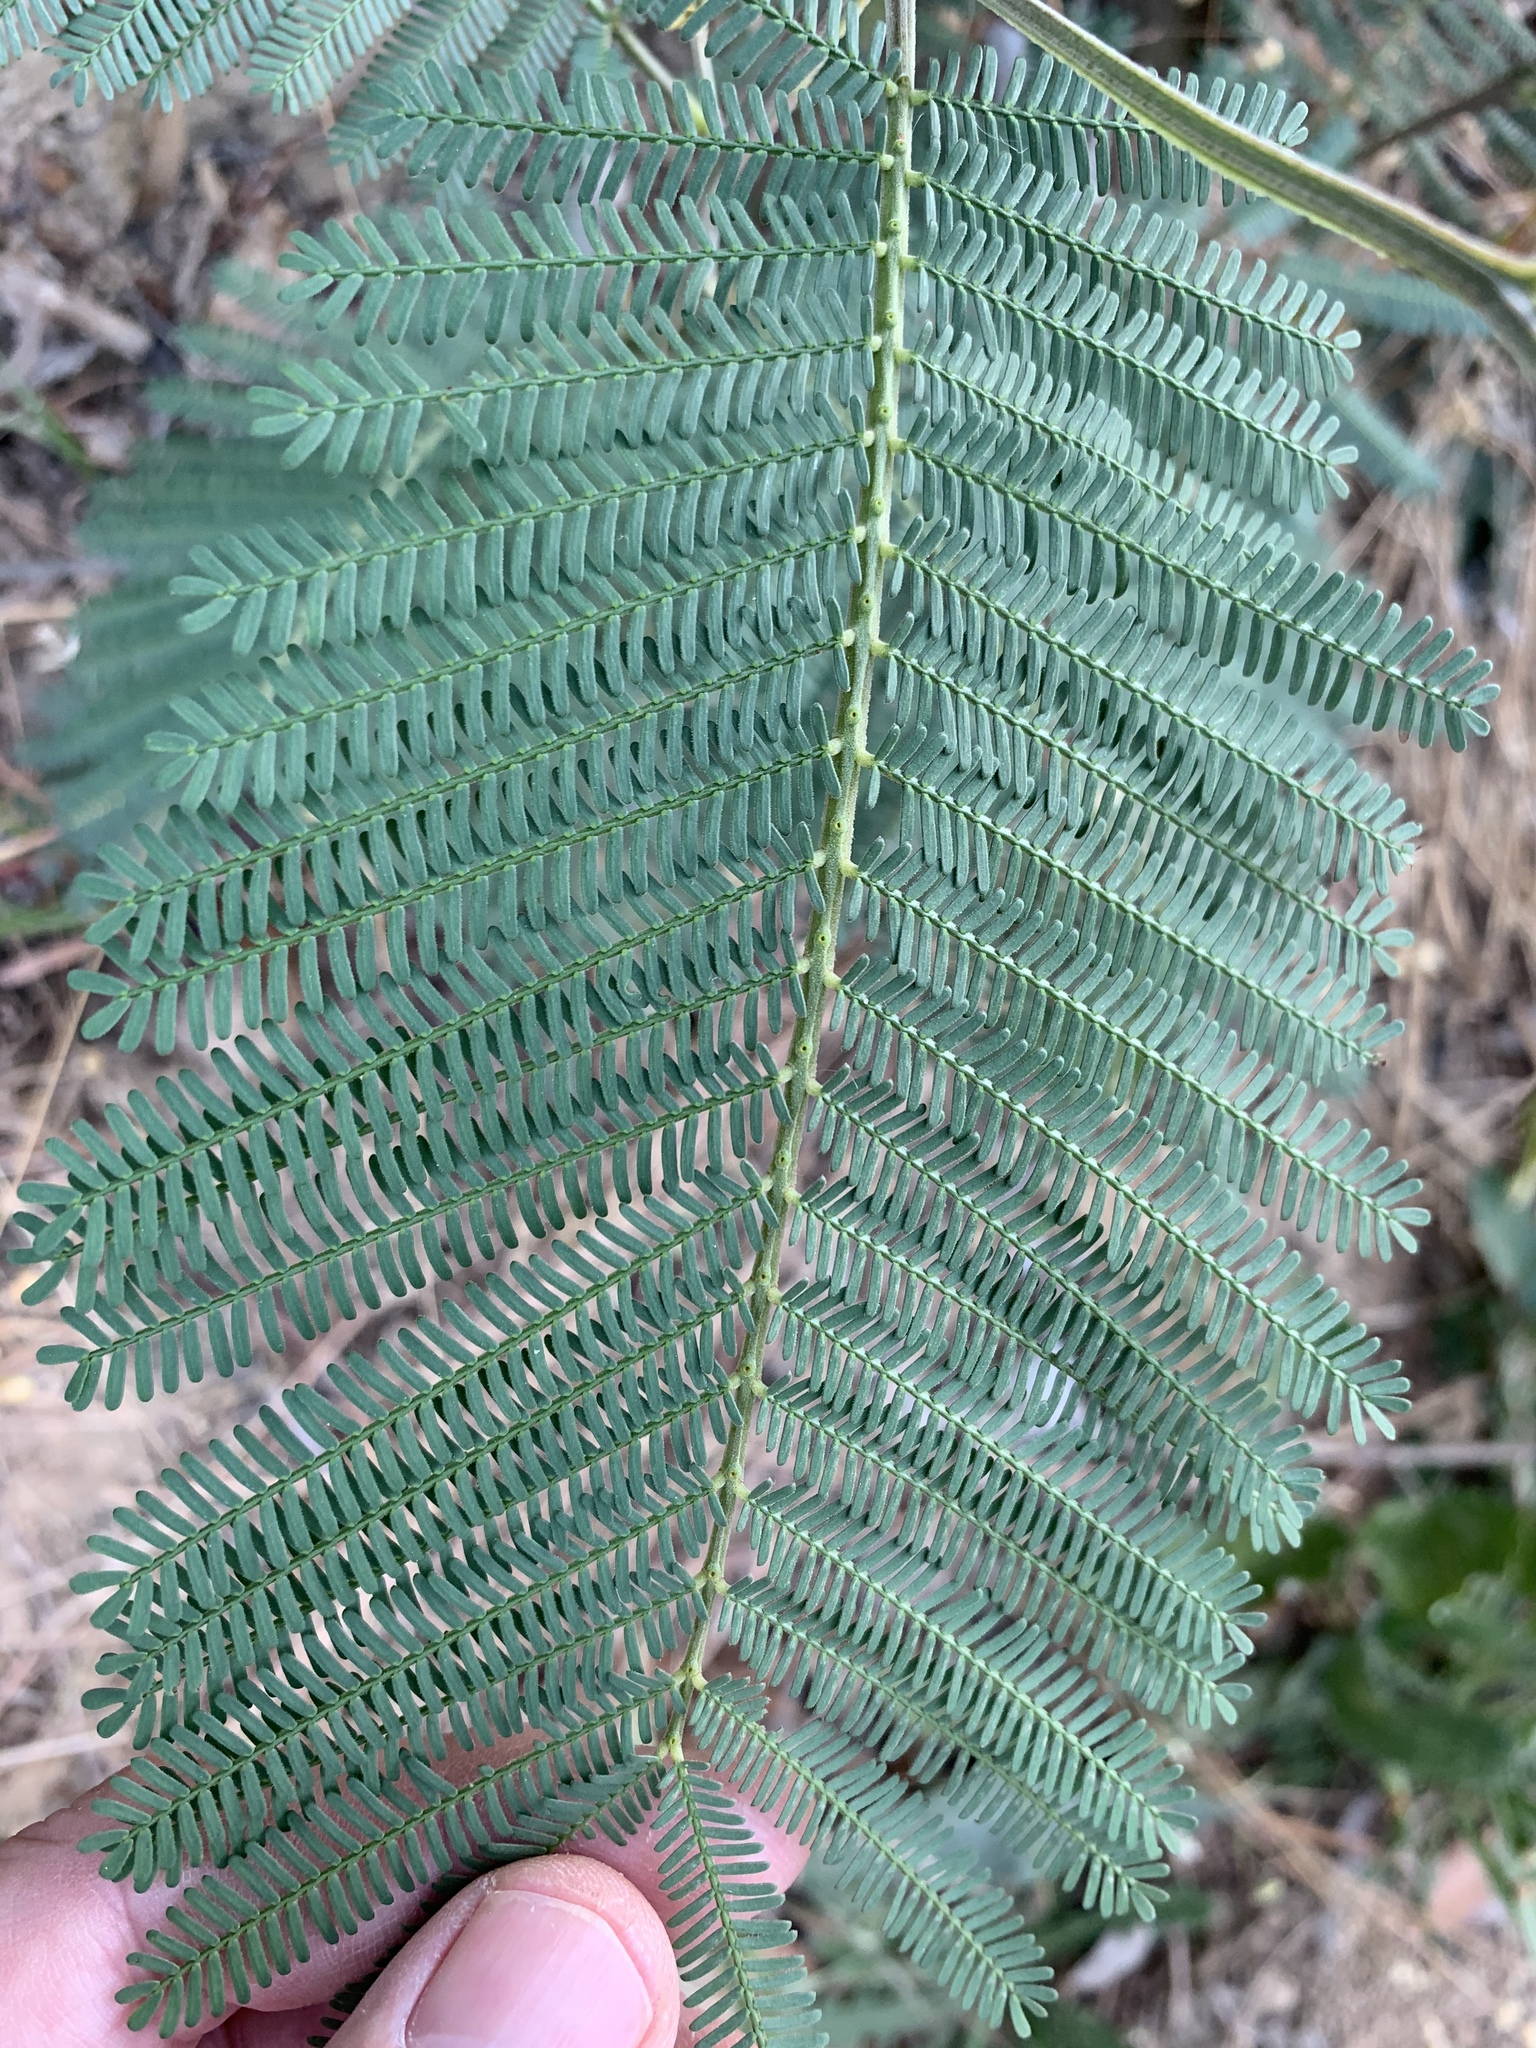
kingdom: Plantae
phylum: Tracheophyta
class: Magnoliopsida
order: Fabales
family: Fabaceae
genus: Acacia
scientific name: Acacia mearnsii
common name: Black wattle
